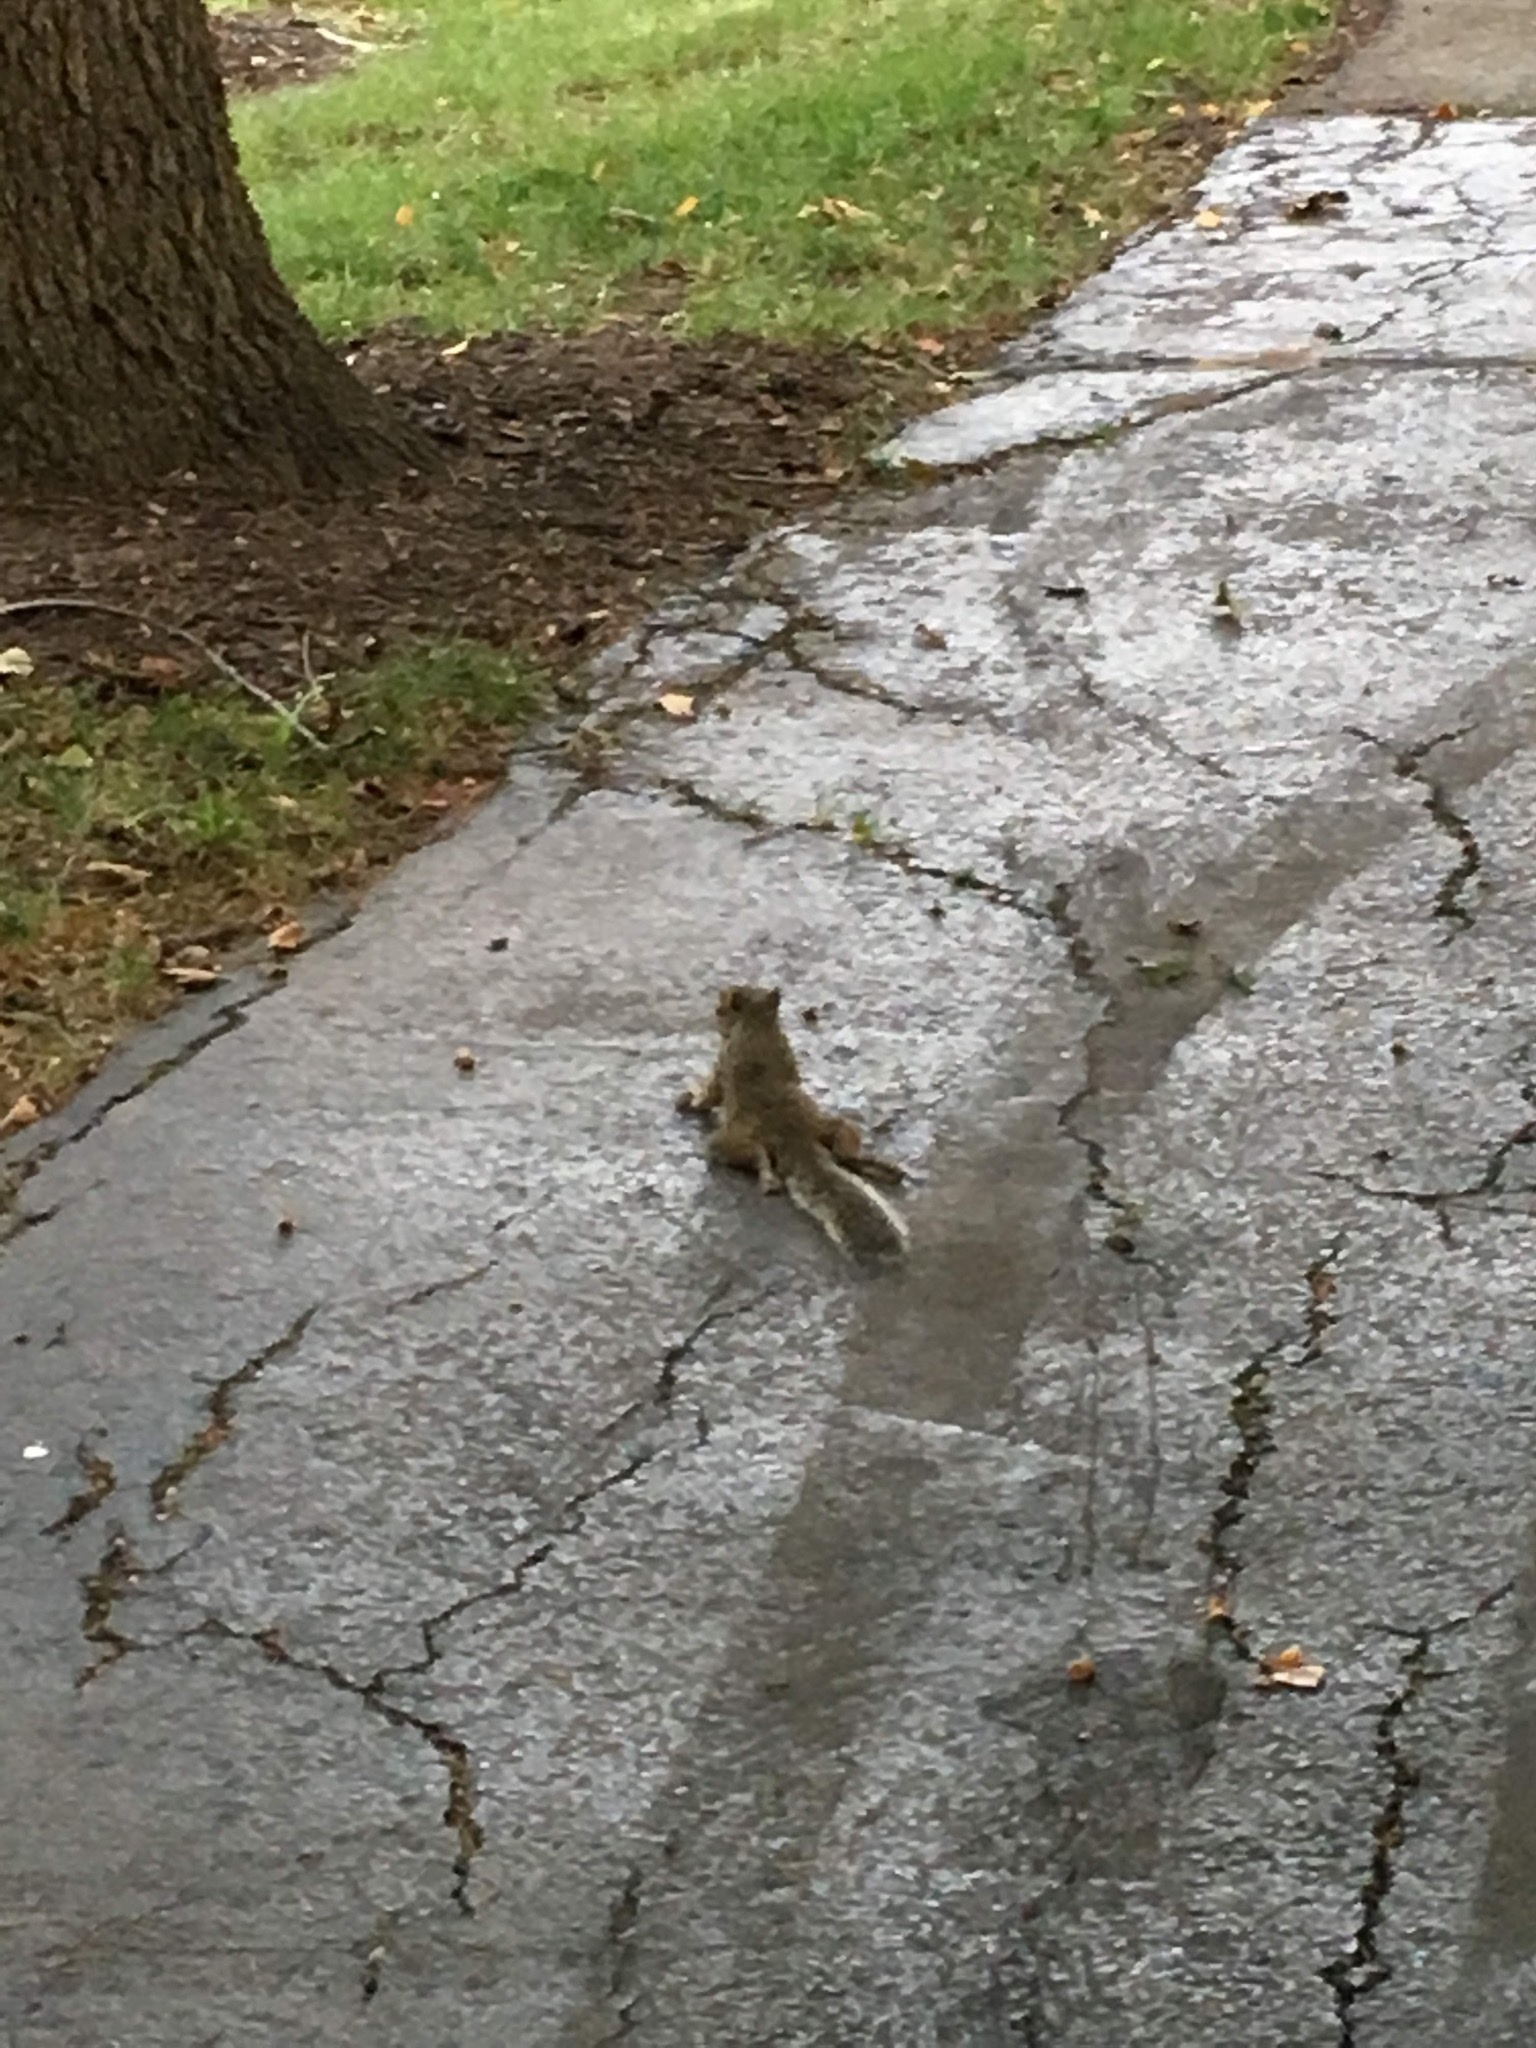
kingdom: Animalia
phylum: Chordata
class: Mammalia
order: Rodentia
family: Sciuridae
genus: Sciurus
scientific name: Sciurus carolinensis
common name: Eastern gray squirrel
